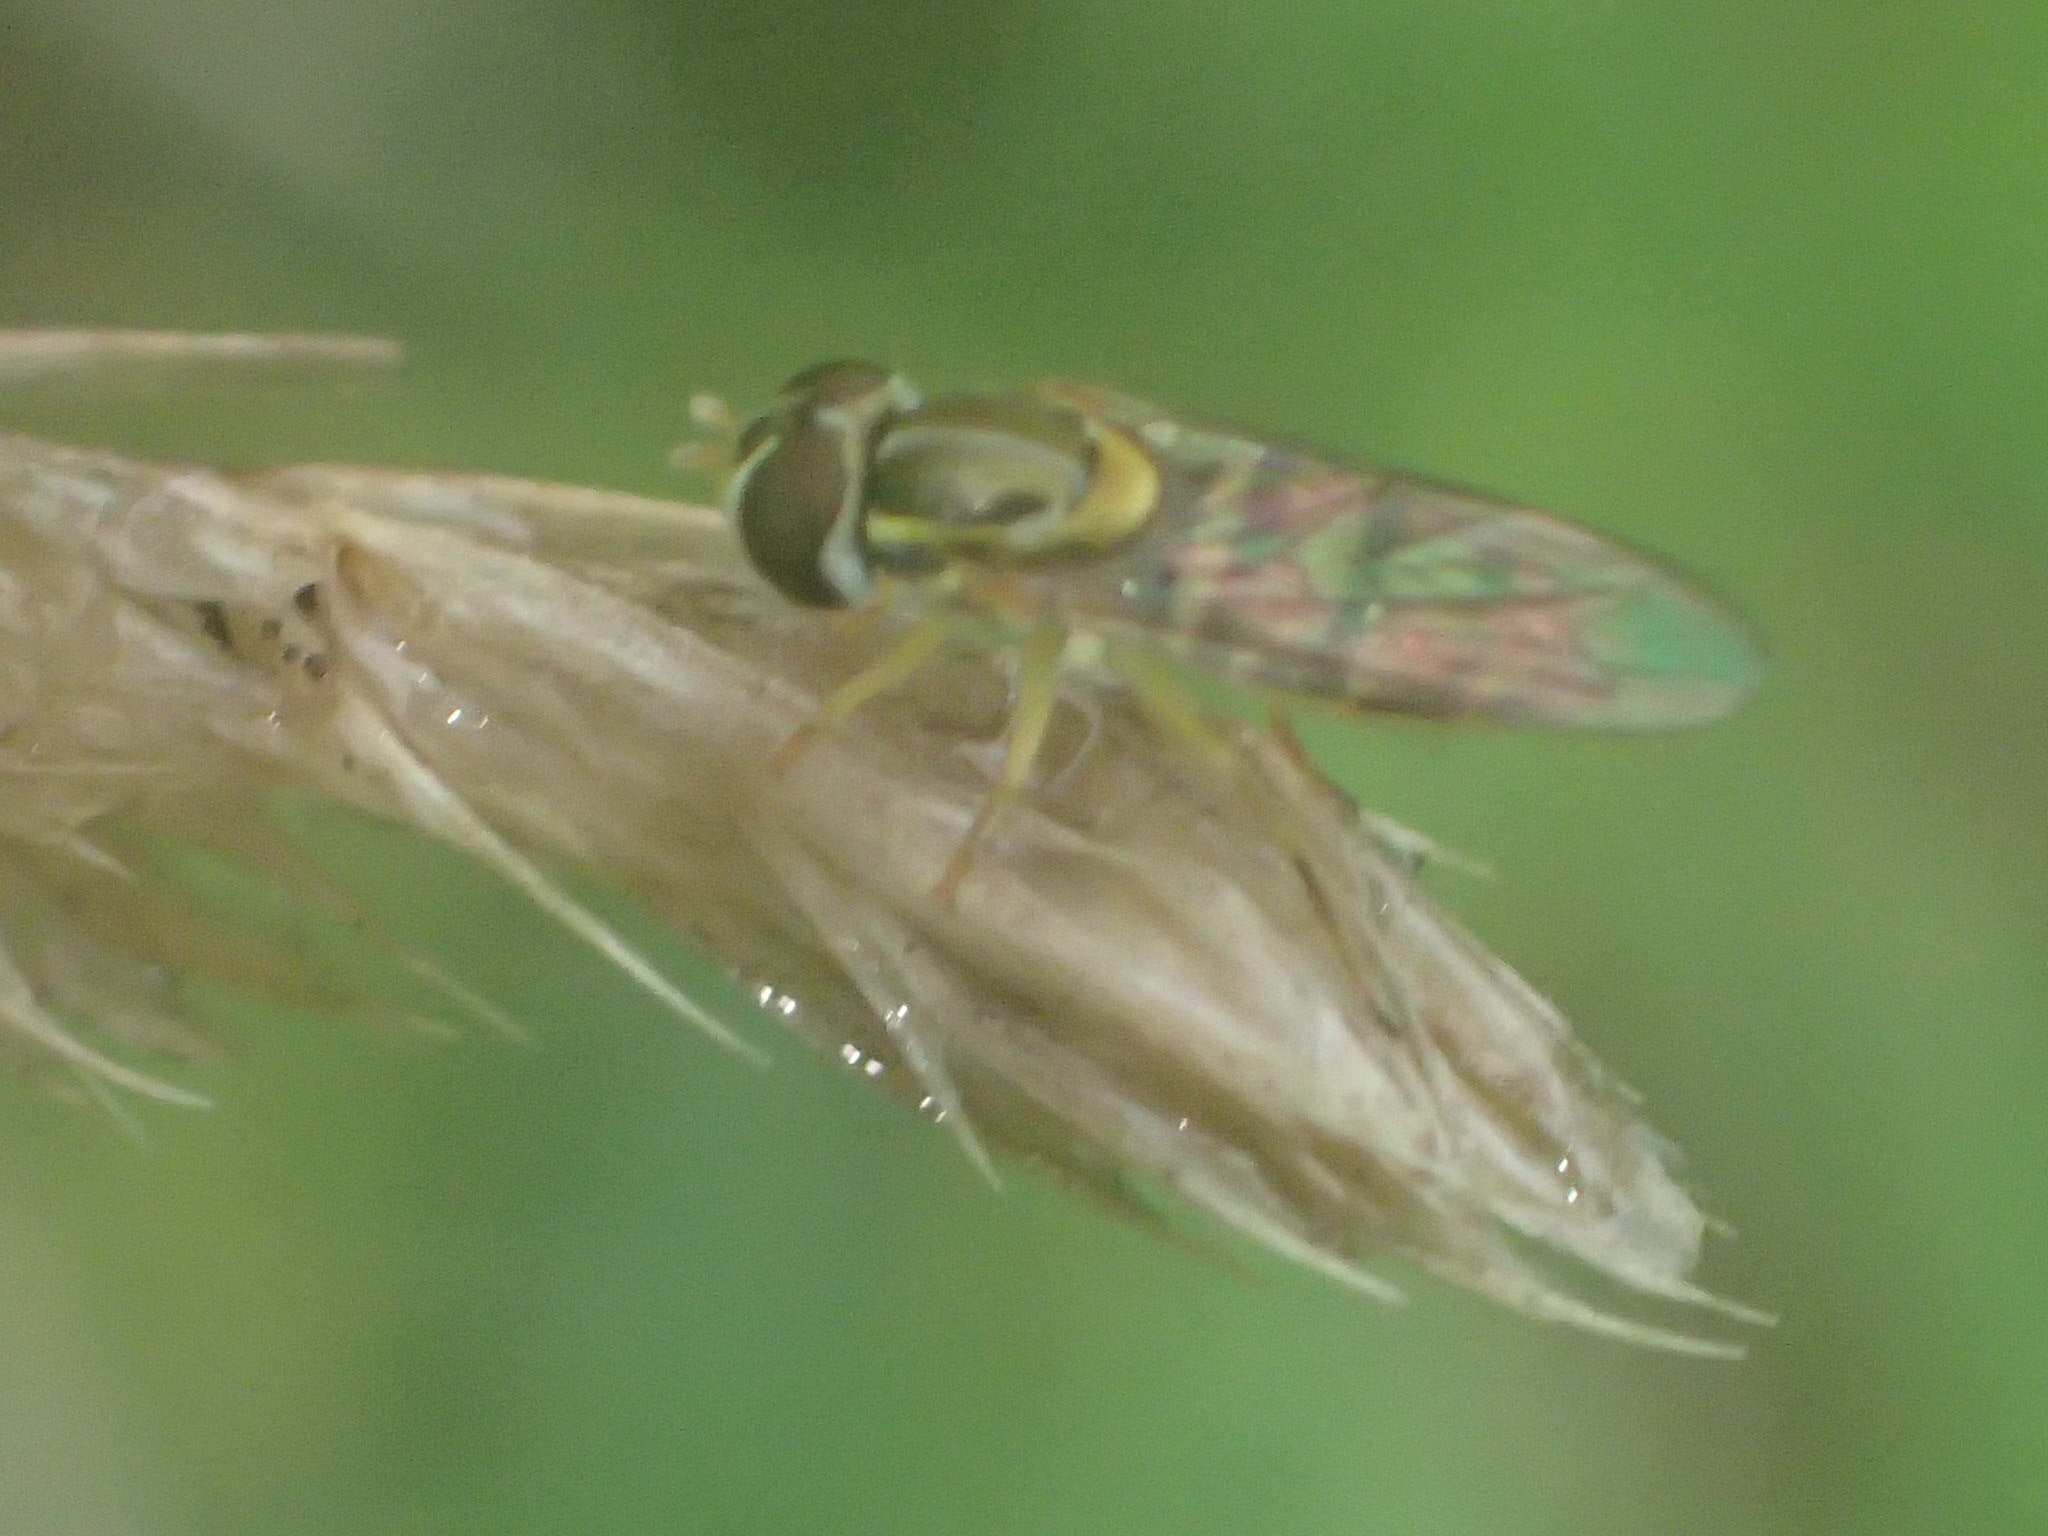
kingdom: Animalia
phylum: Arthropoda
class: Insecta
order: Diptera
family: Syrphidae
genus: Toxomerus
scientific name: Toxomerus marginatus
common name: Syrphid fly
